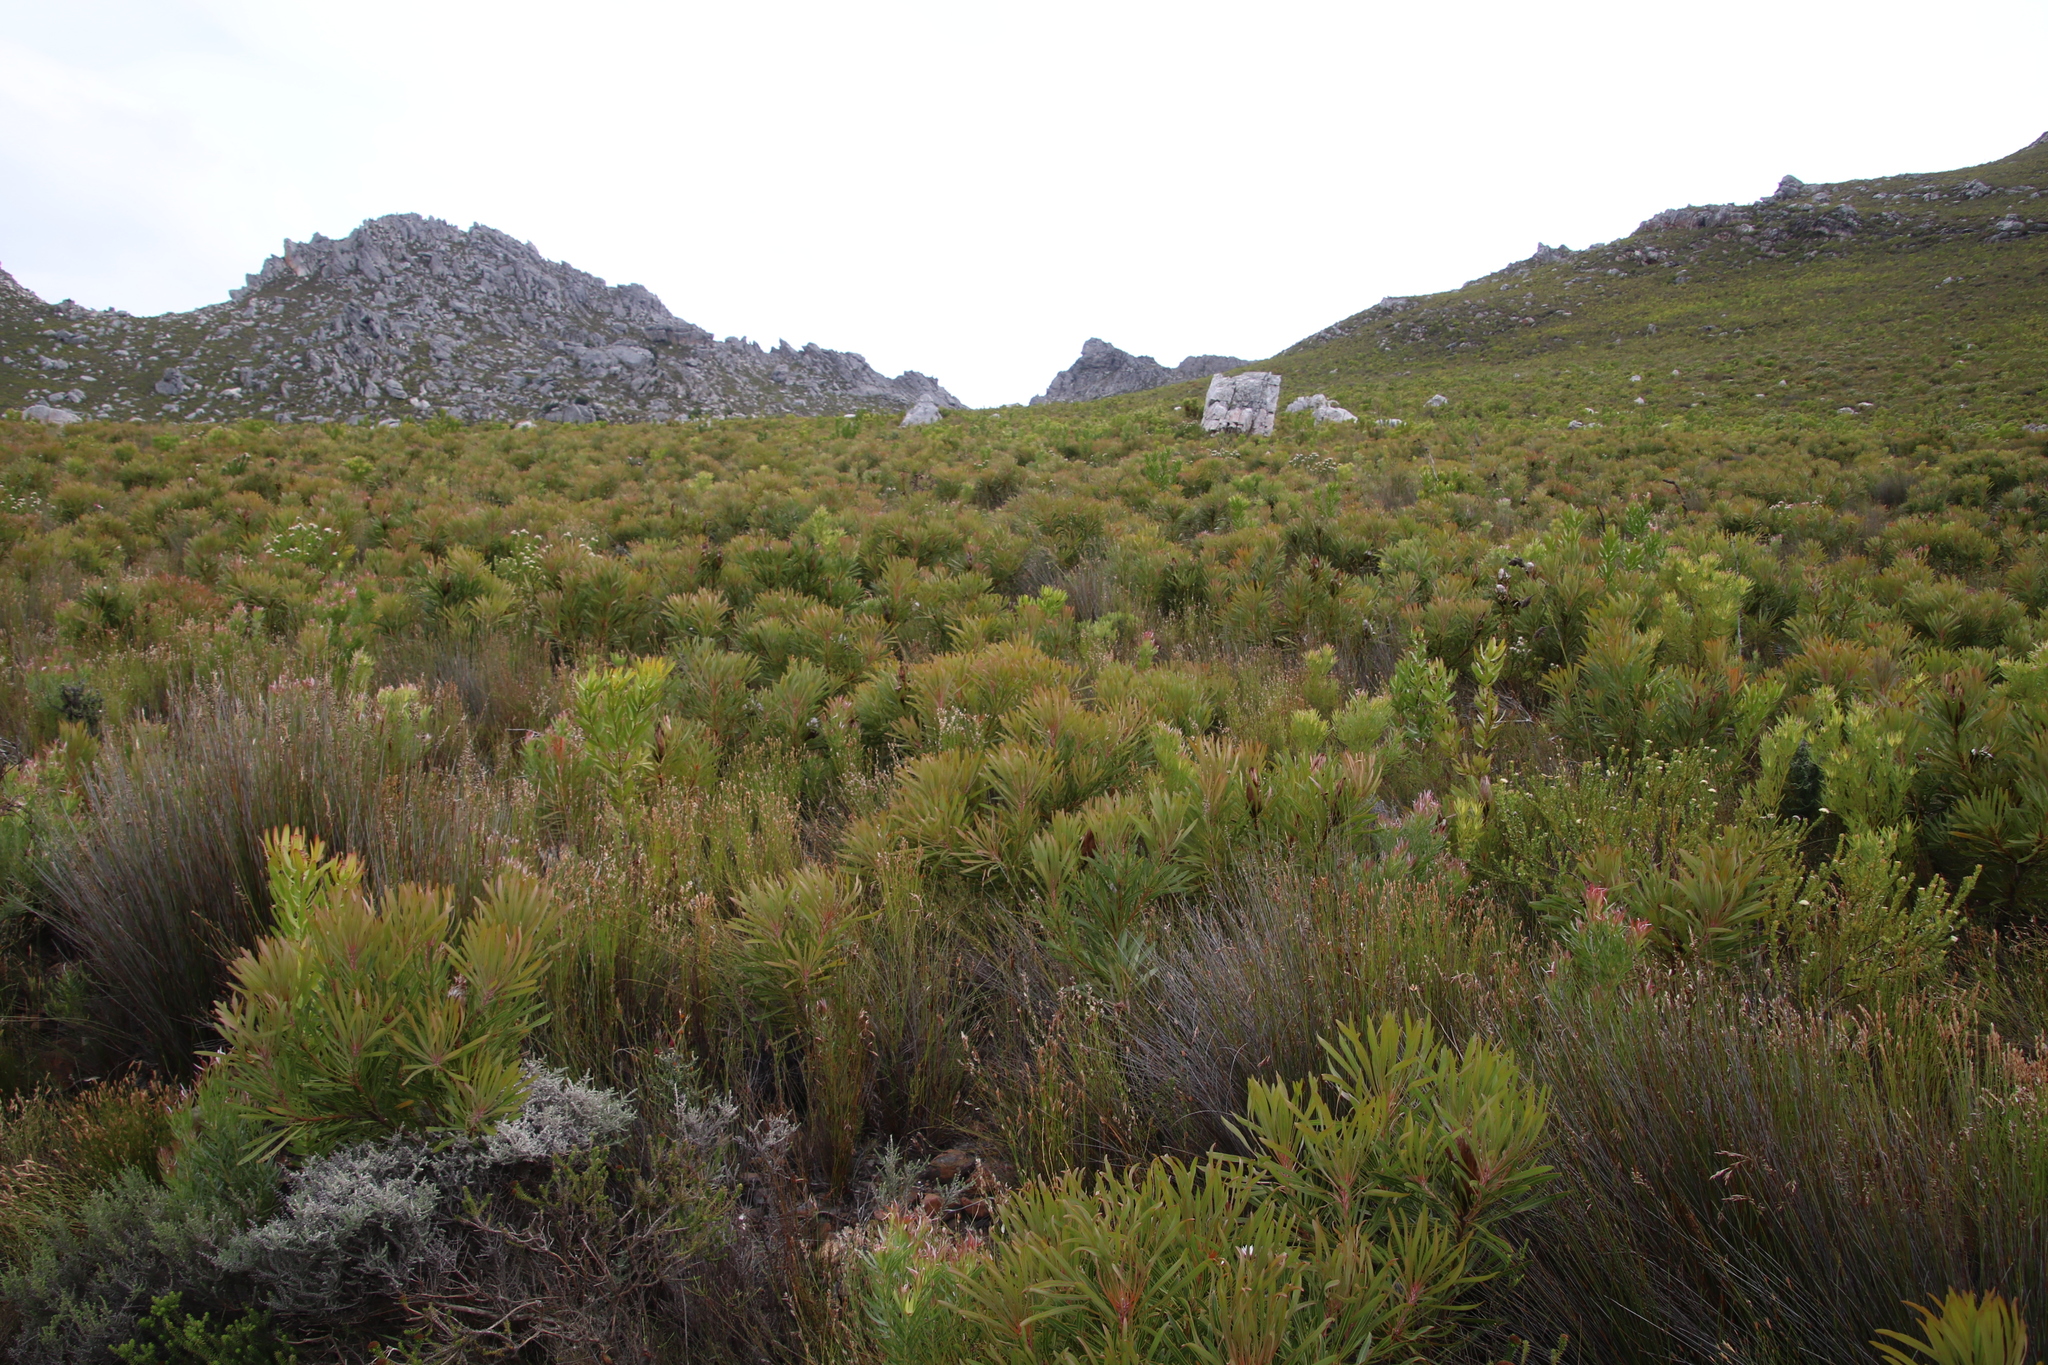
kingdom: Plantae
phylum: Tracheophyta
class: Magnoliopsida
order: Proteales
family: Proteaceae
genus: Protea
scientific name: Protea longifolia
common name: Long-leaf sugarbush
